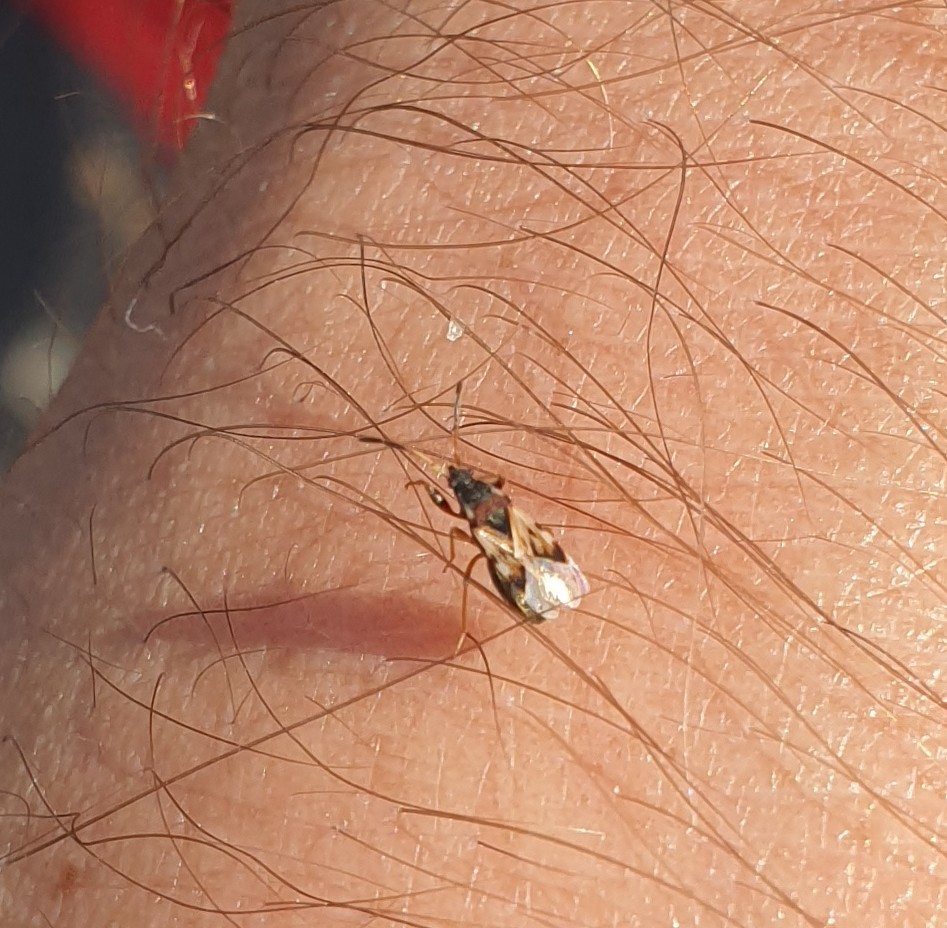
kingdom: Animalia
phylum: Arthropoda
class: Insecta
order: Hemiptera
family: Rhyparochromidae
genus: Scolopostethus
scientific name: Scolopostethus affinis
